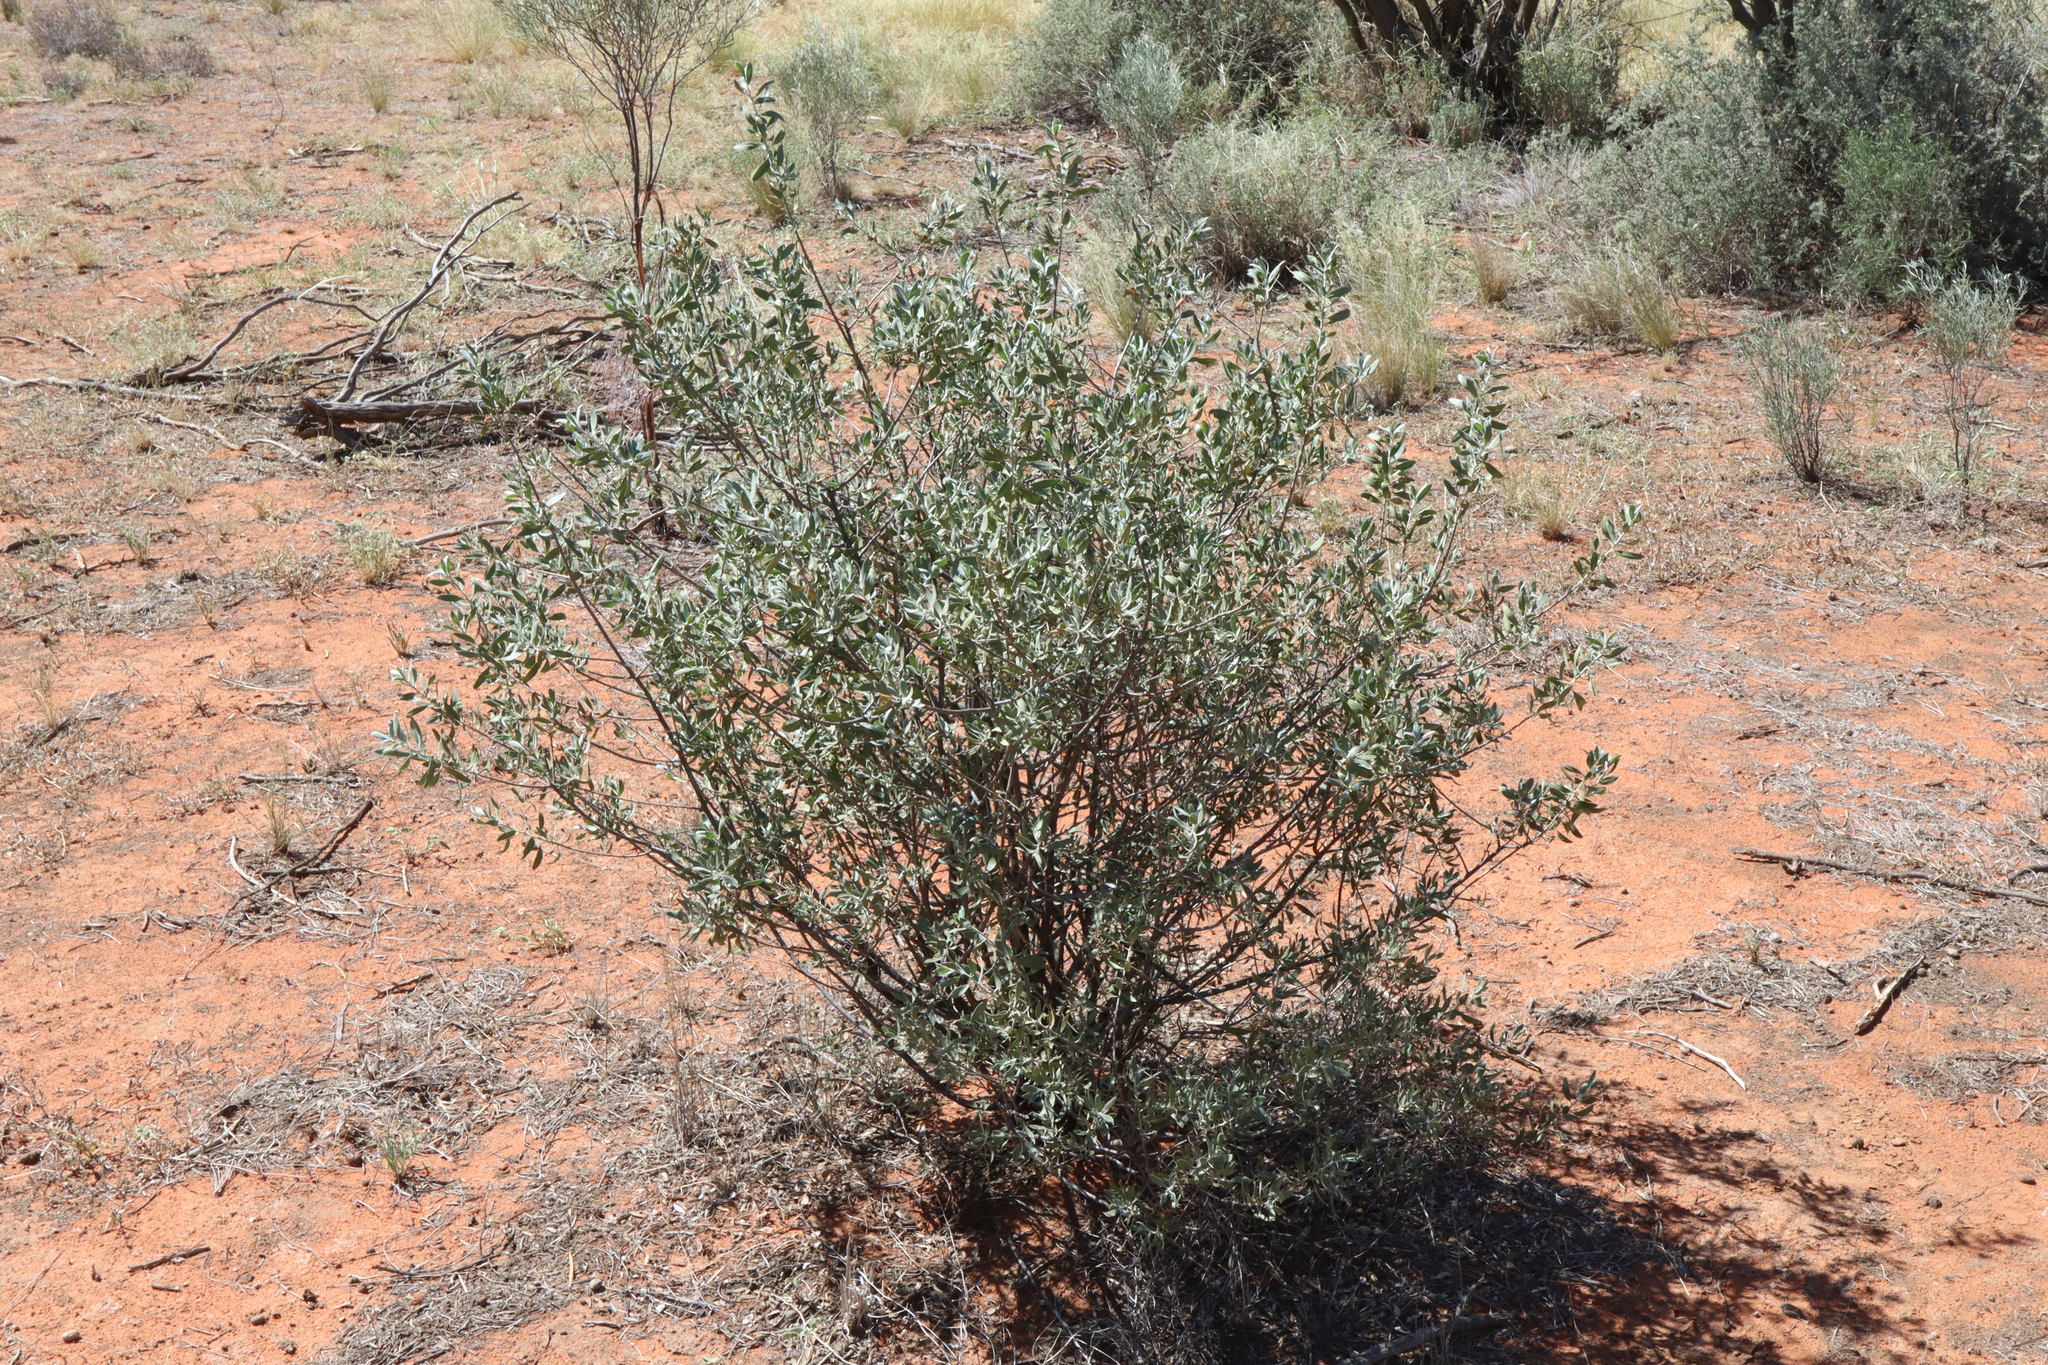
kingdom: Plantae
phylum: Tracheophyta
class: Magnoliopsida
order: Lamiales
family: Scrophulariaceae
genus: Eremophila
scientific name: Eremophila glabra
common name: Black-fuchsia
